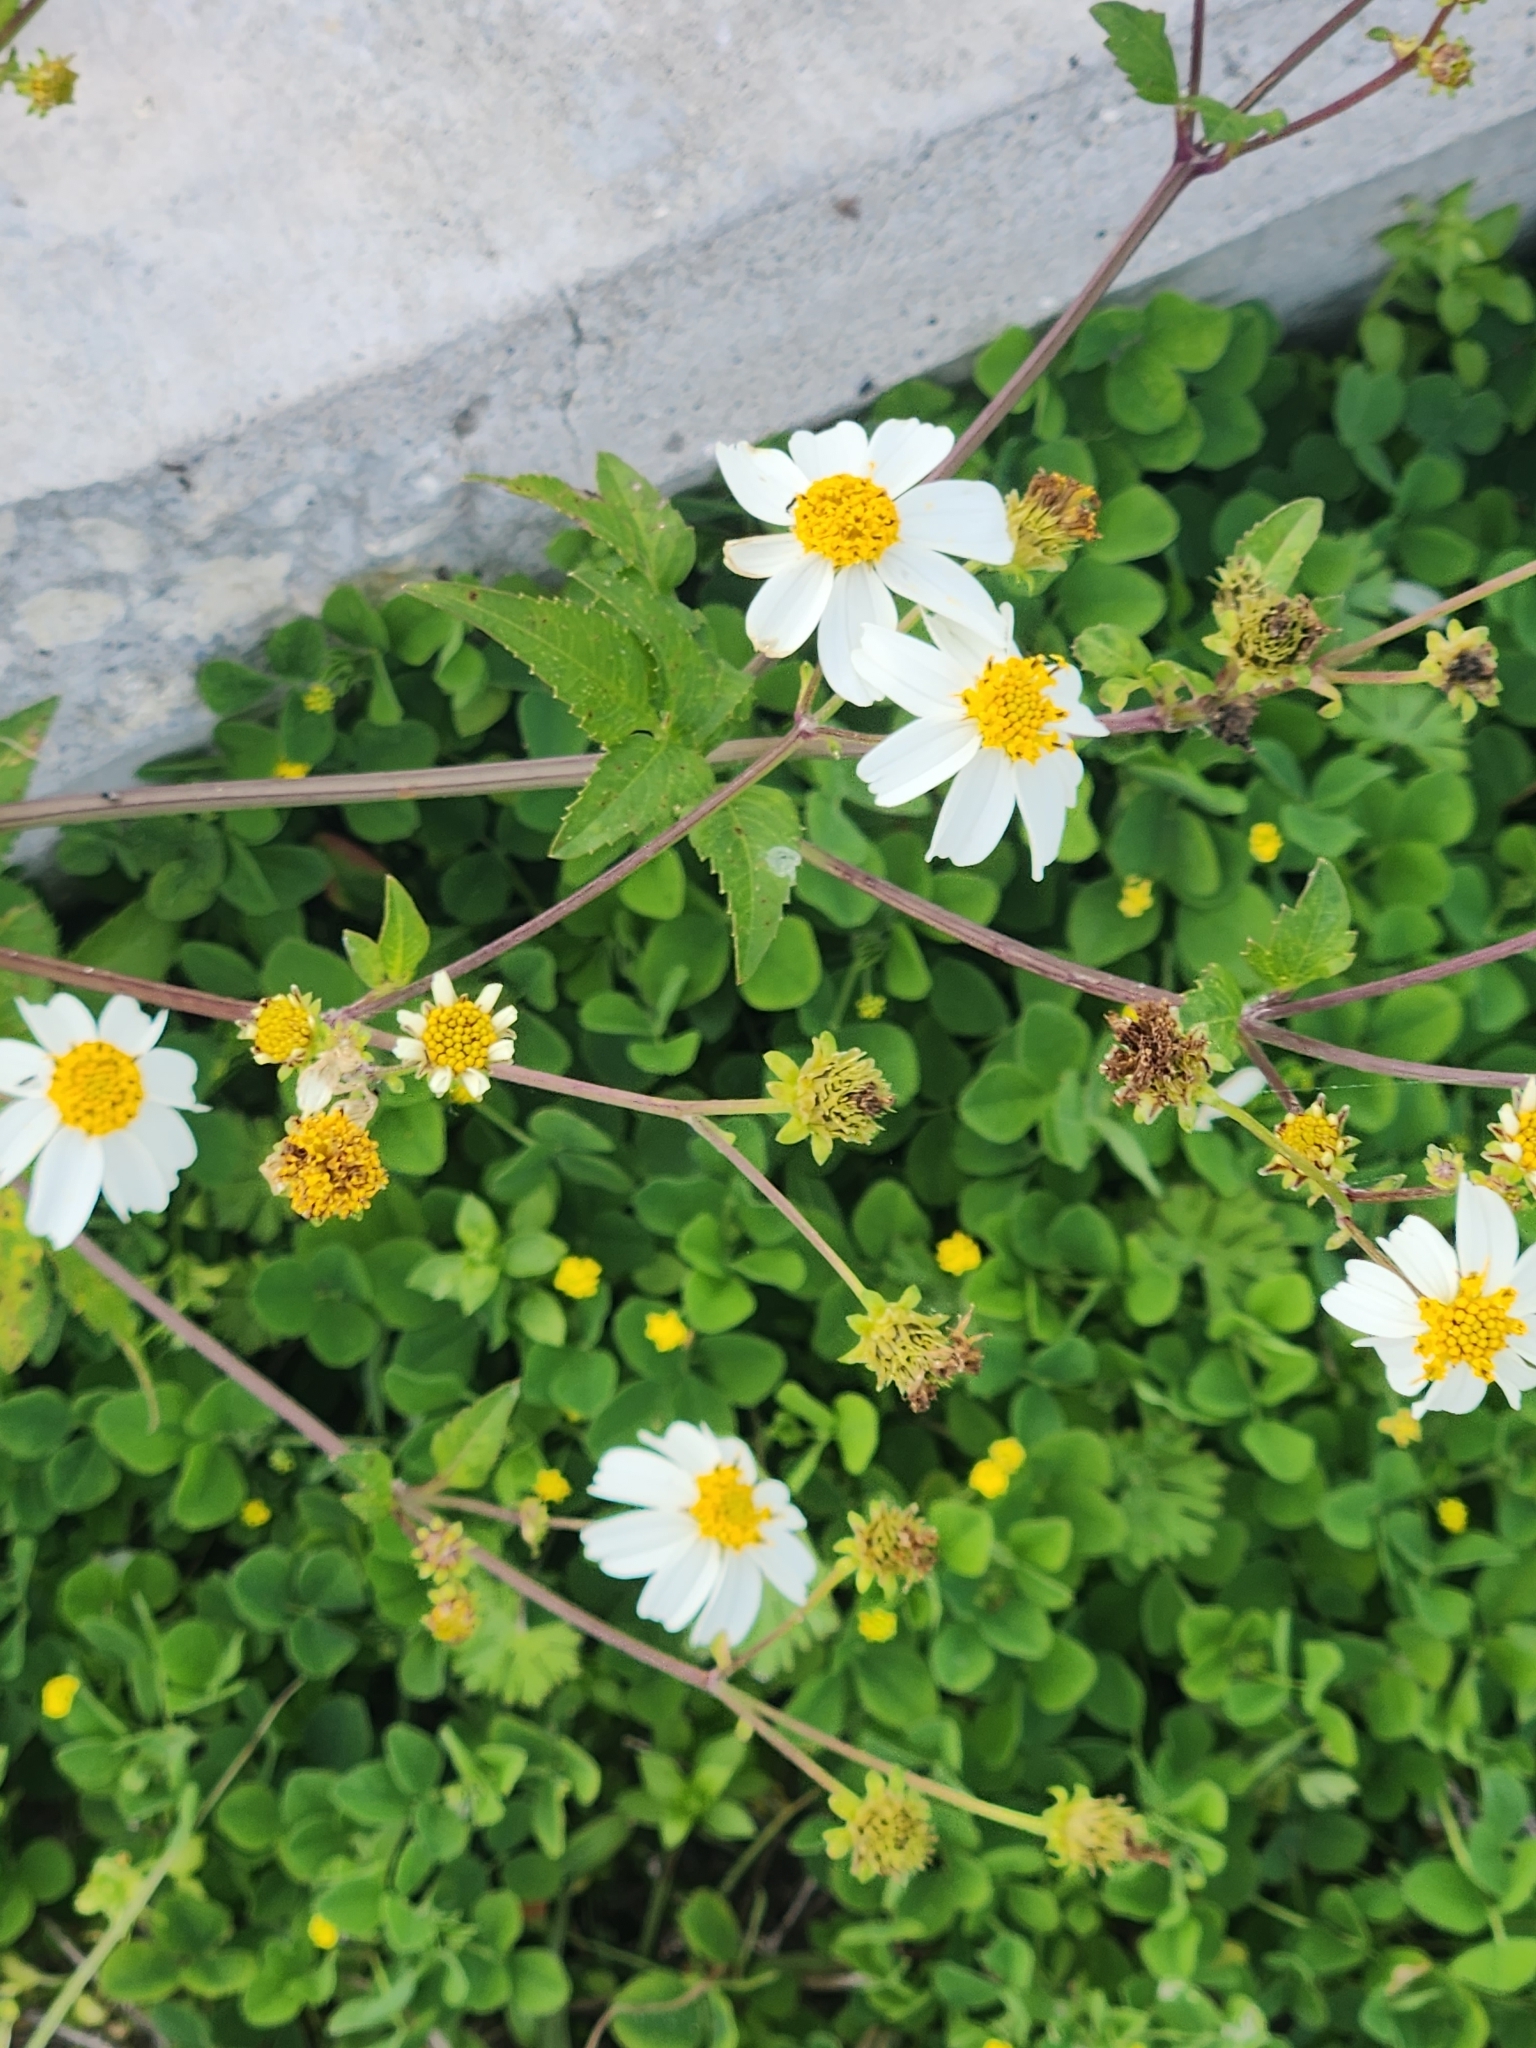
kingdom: Plantae
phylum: Tracheophyta
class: Magnoliopsida
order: Asterales
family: Asteraceae
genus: Bidens
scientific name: Bidens alba
